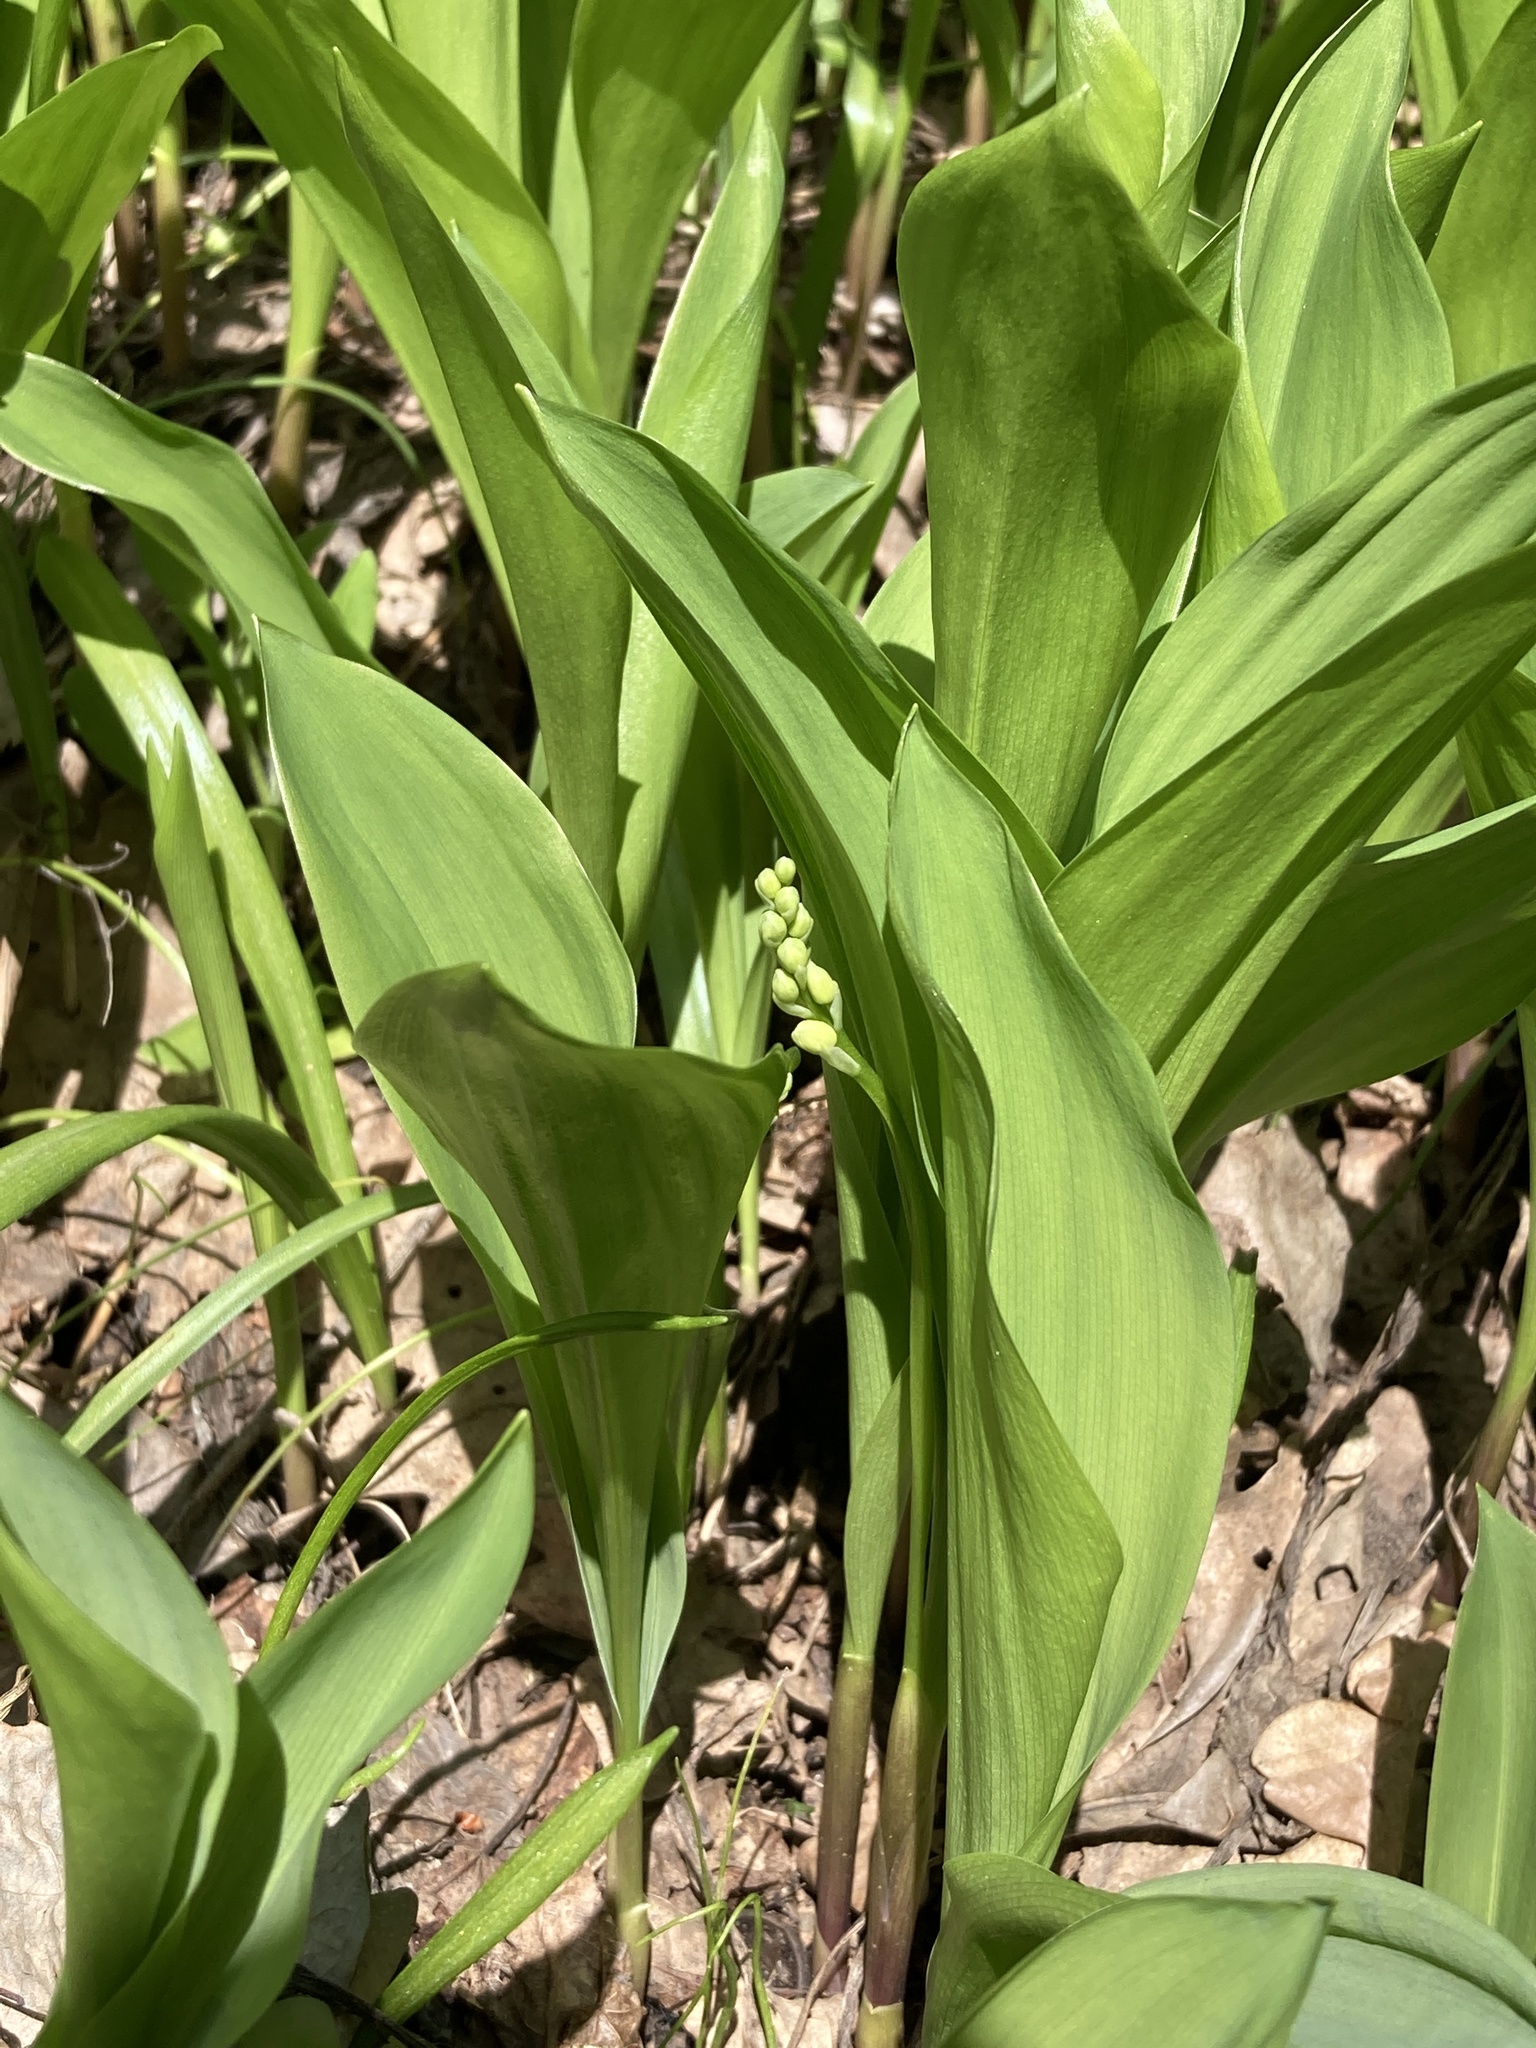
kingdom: Plantae
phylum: Tracheophyta
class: Liliopsida
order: Asparagales
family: Asparagaceae
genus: Convallaria
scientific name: Convallaria majalis
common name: Lily-of-the-valley
